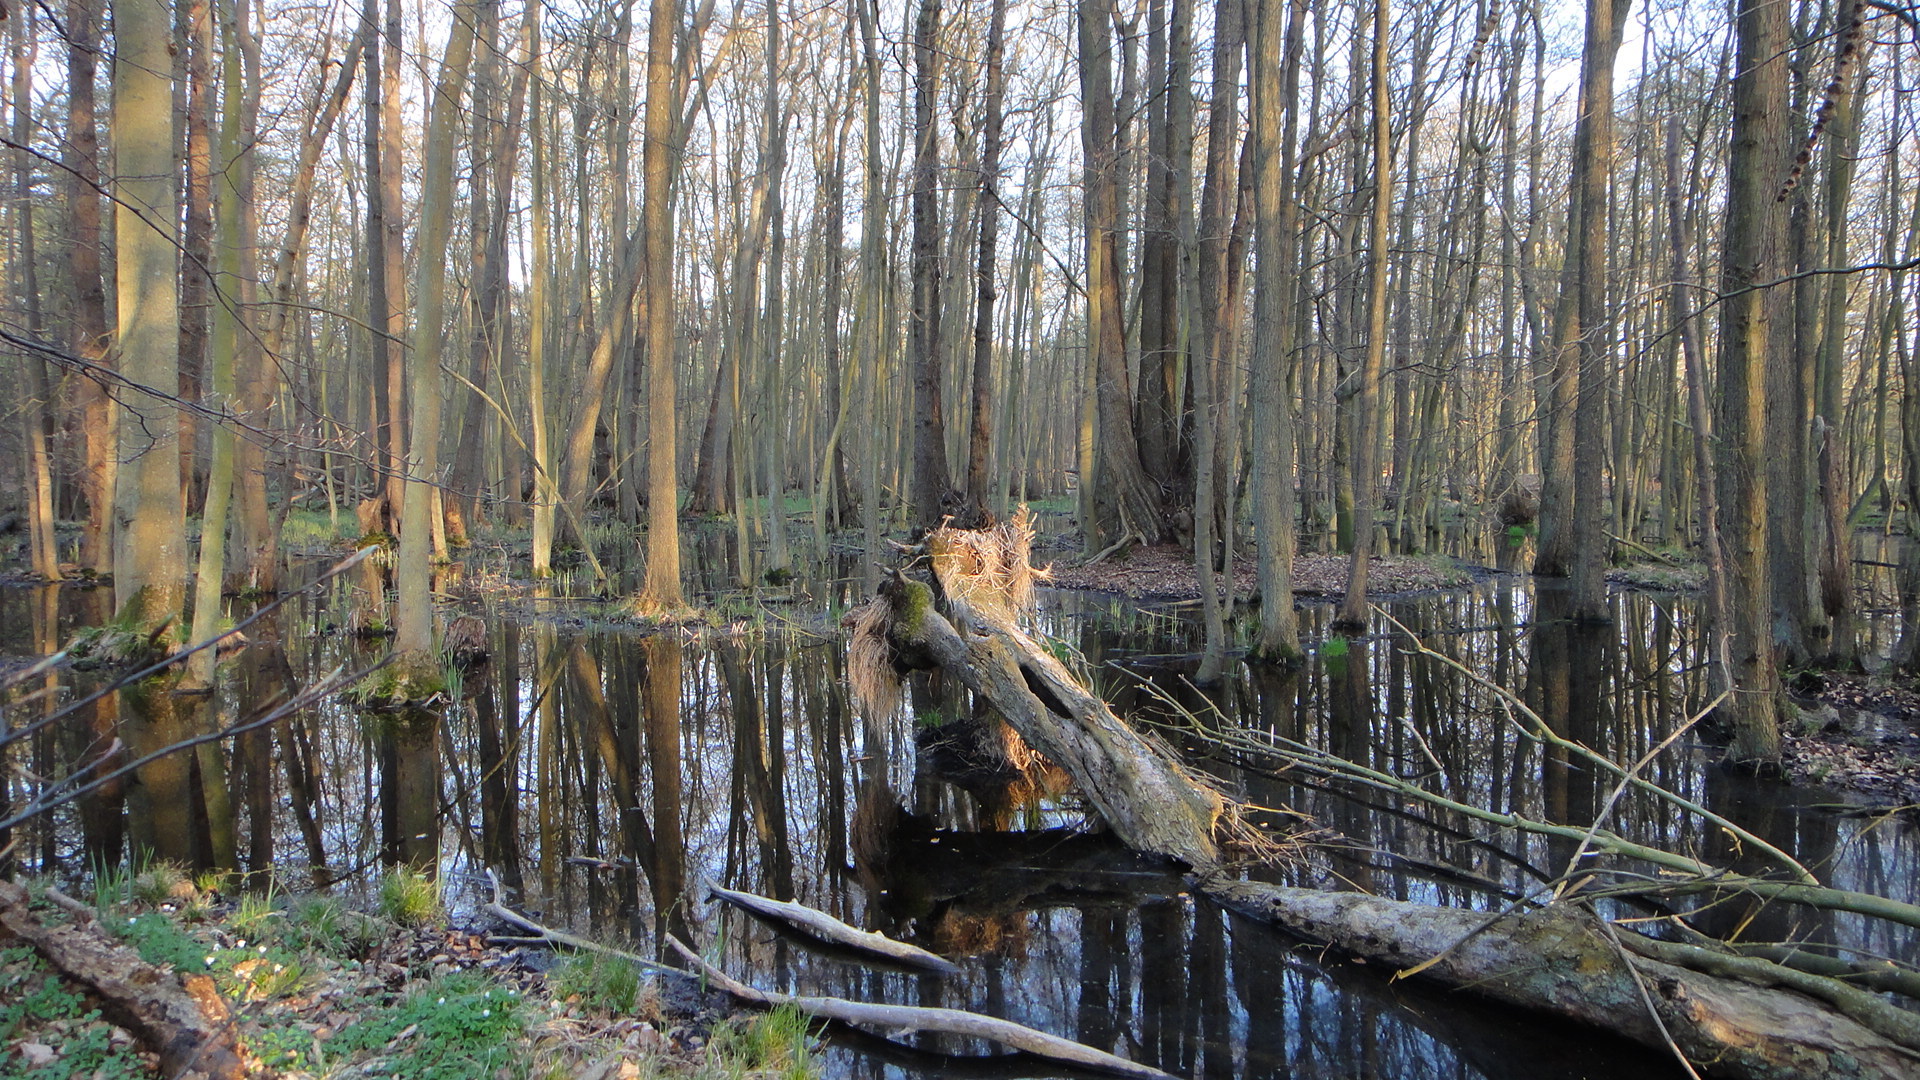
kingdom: Plantae
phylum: Tracheophyta
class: Magnoliopsida
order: Fagales
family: Betulaceae
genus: Alnus
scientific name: Alnus glutinosa
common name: Black alder
